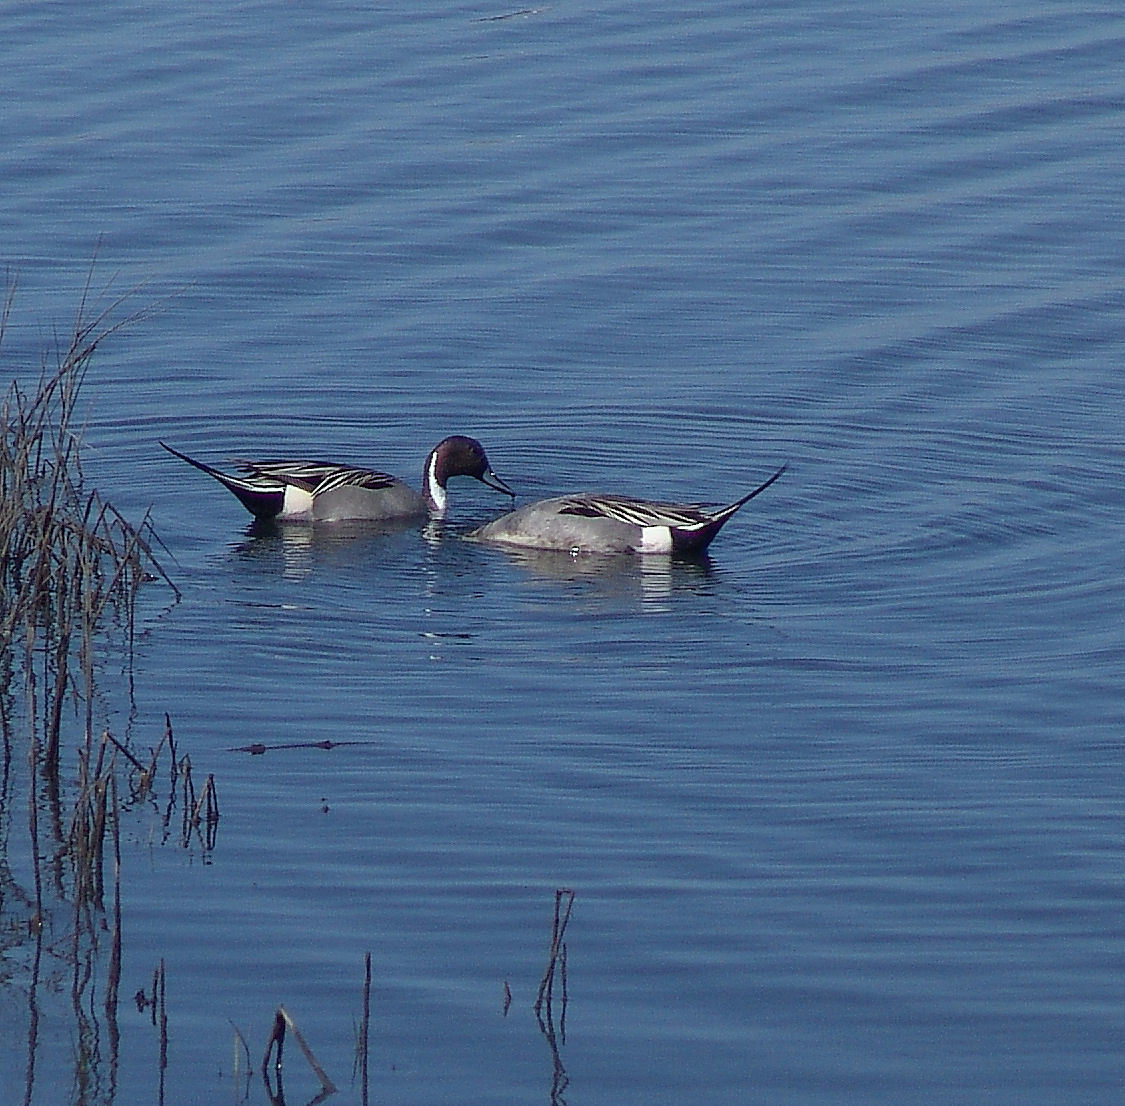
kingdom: Animalia
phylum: Chordata
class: Aves
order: Anseriformes
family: Anatidae
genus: Anas
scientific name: Anas acuta
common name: Northern pintail
